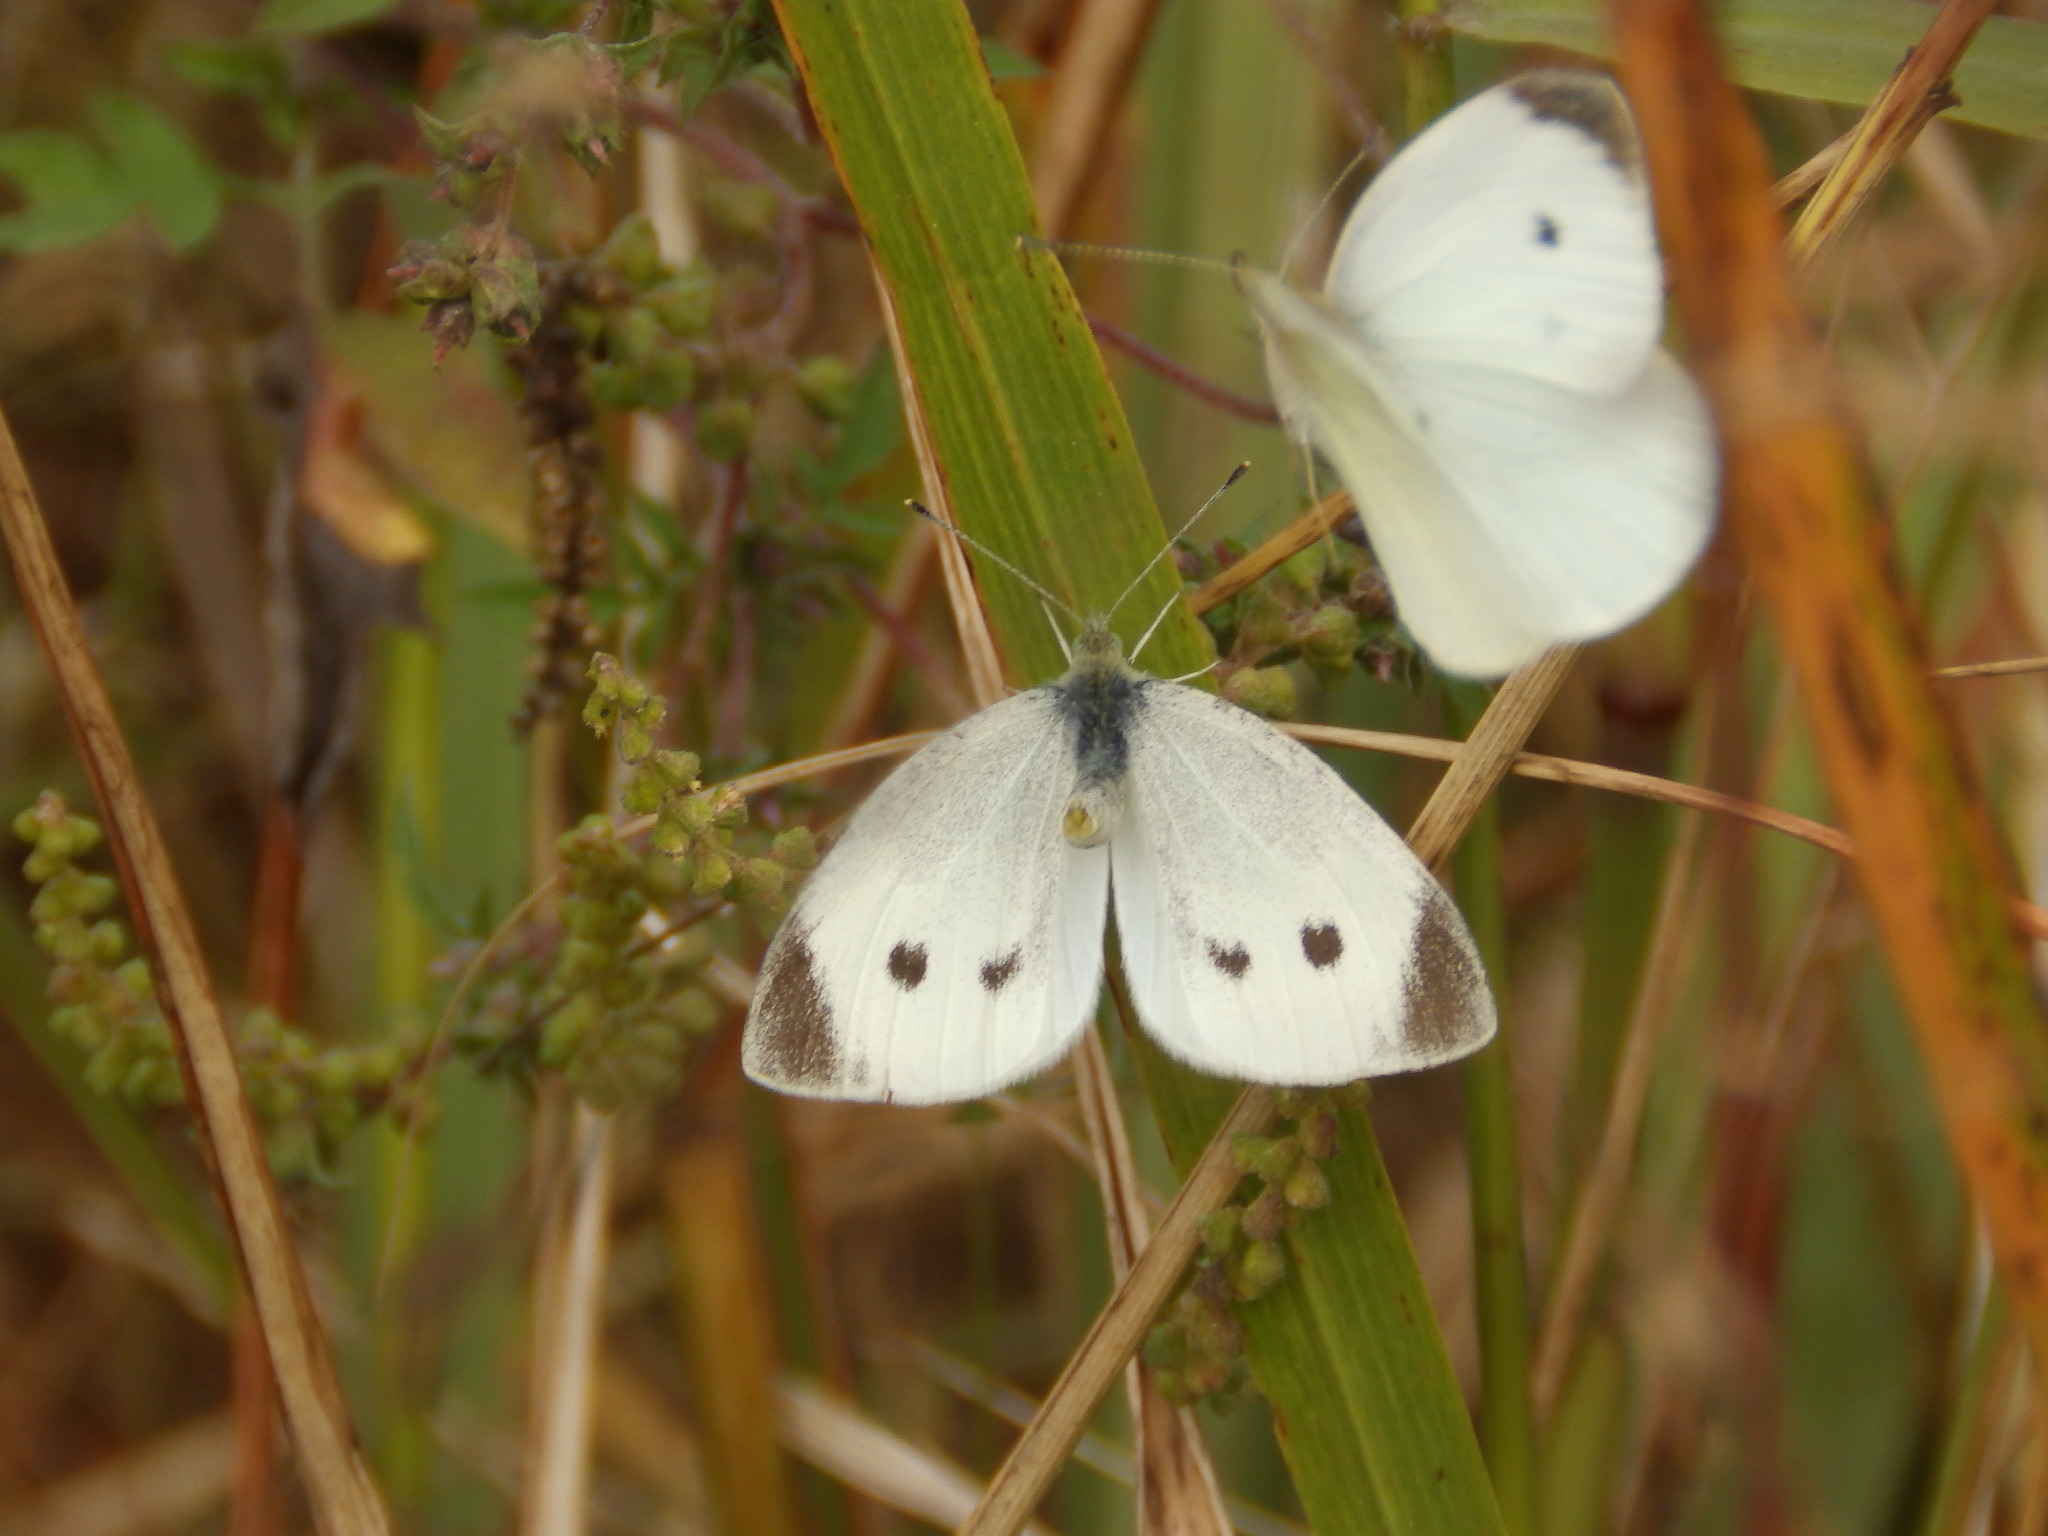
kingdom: Animalia
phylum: Arthropoda
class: Insecta
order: Lepidoptera
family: Pieridae
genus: Pieris
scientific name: Pieris rapae
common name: Small white
